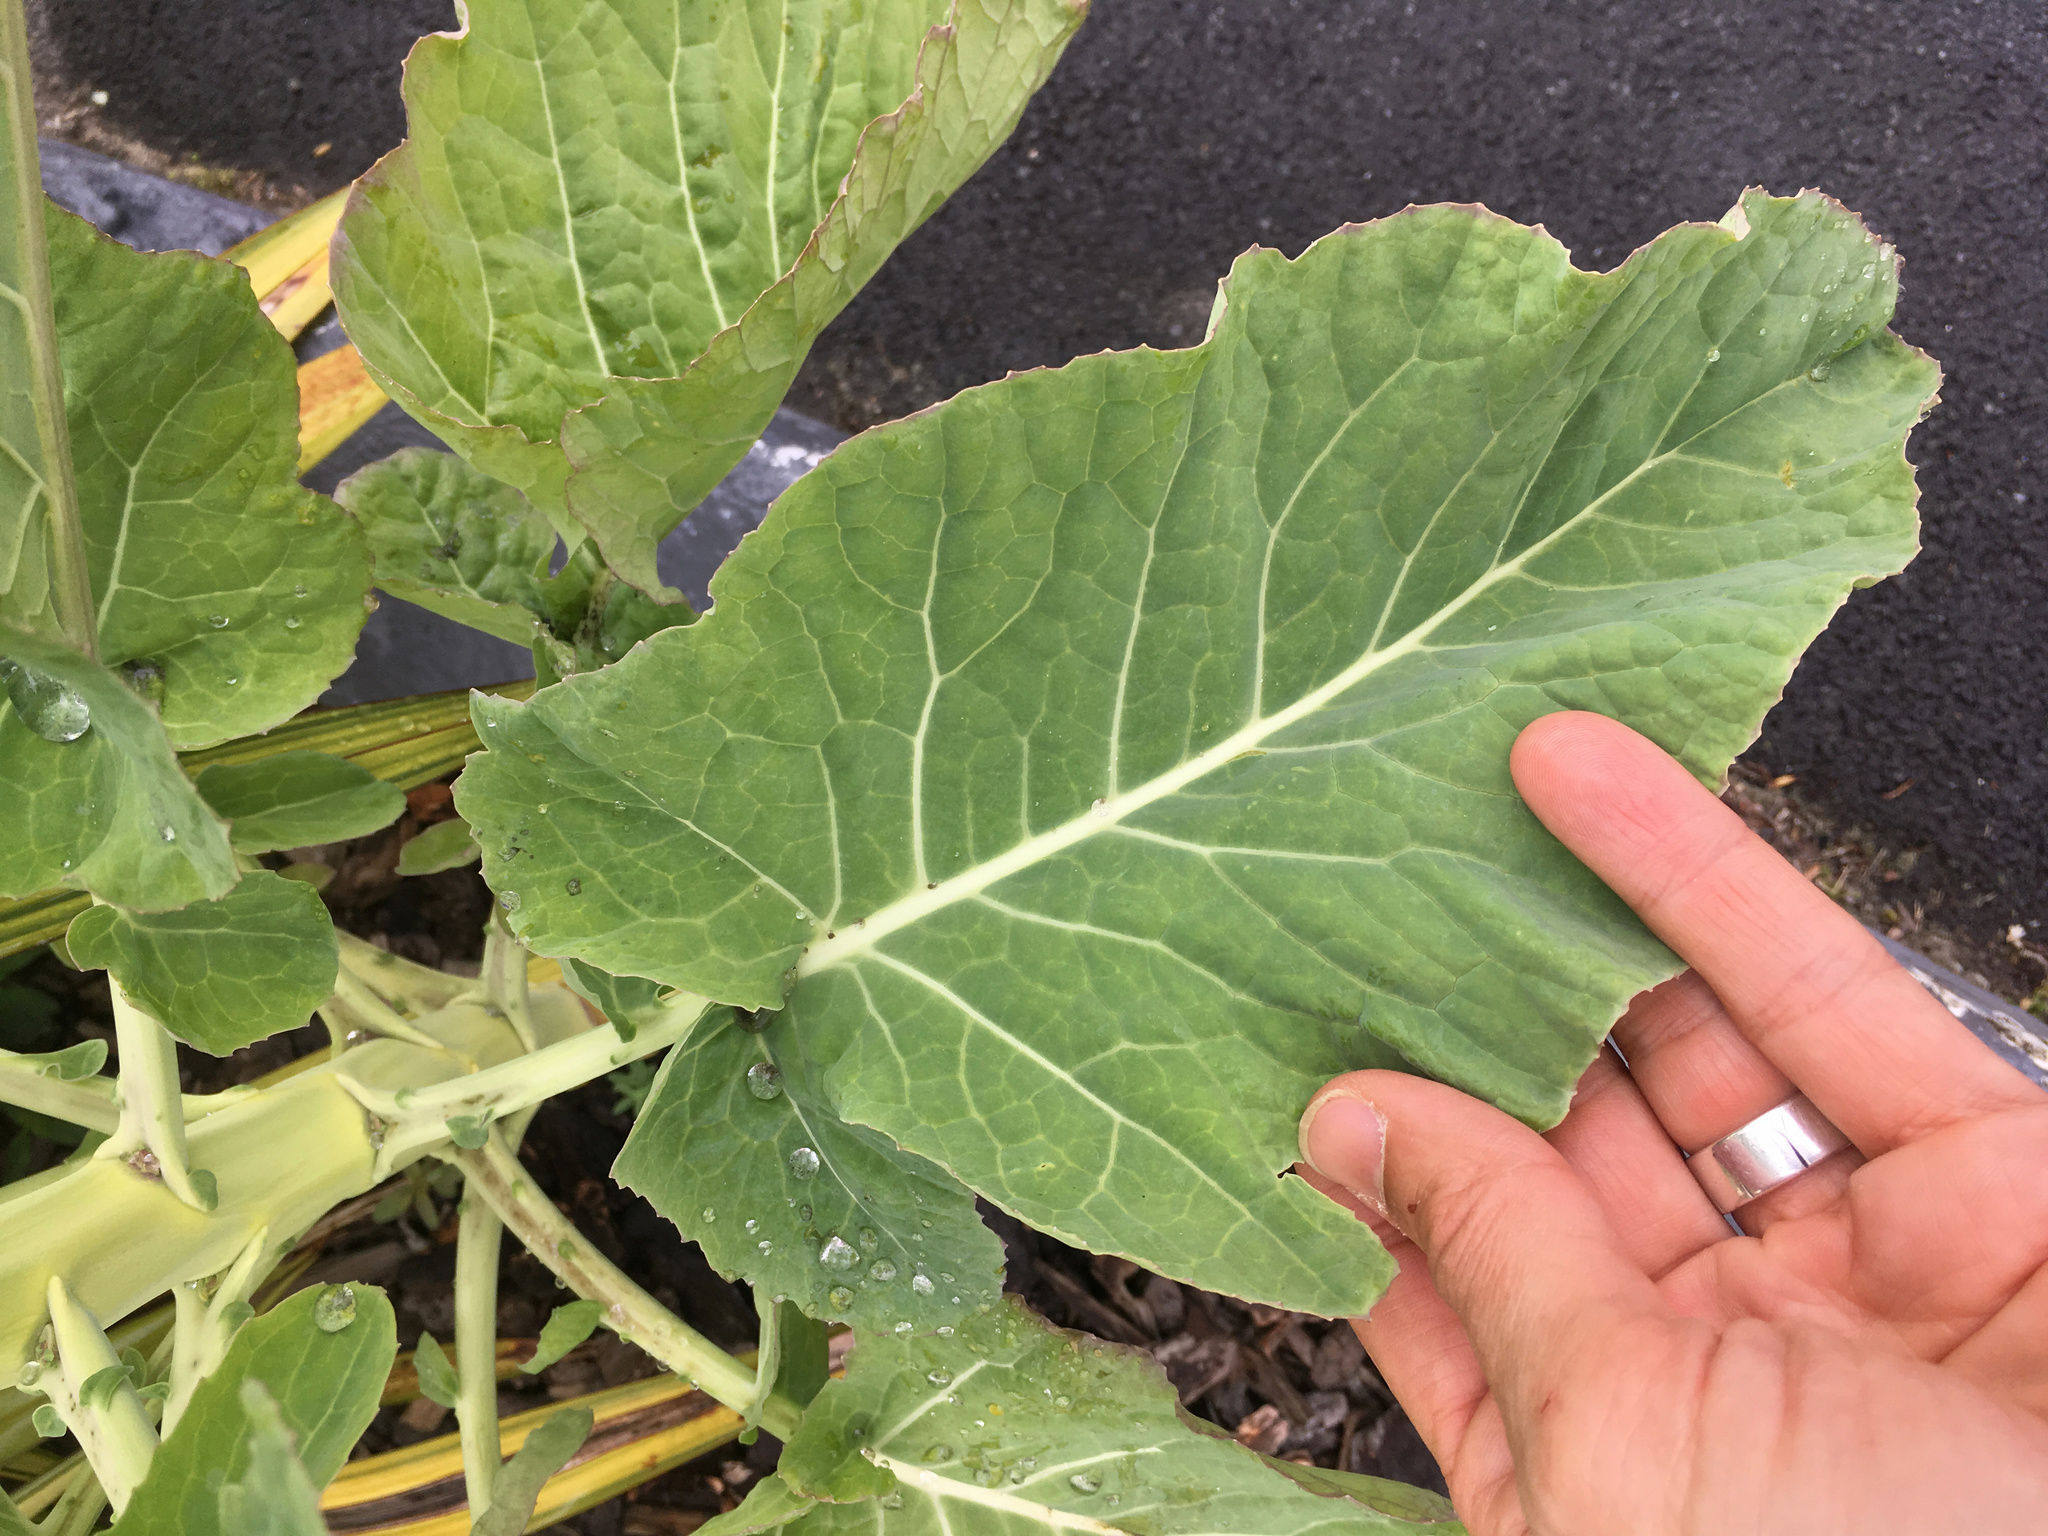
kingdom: Plantae
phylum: Tracheophyta
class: Magnoliopsida
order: Brassicales
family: Brassicaceae
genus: Brassica
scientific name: Brassica oleracea
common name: Cabbage
